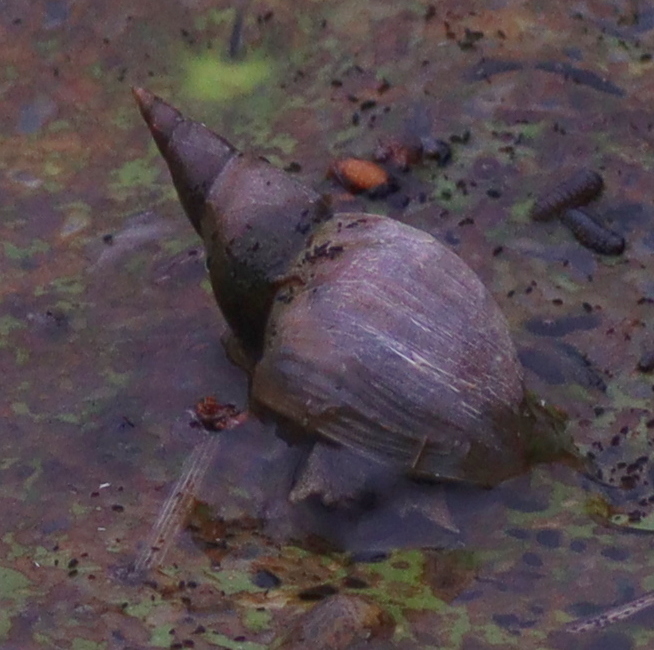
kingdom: Animalia
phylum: Mollusca
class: Gastropoda
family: Lymnaeidae
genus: Lymnaea
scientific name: Lymnaea stagnalis
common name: Great pond snail
